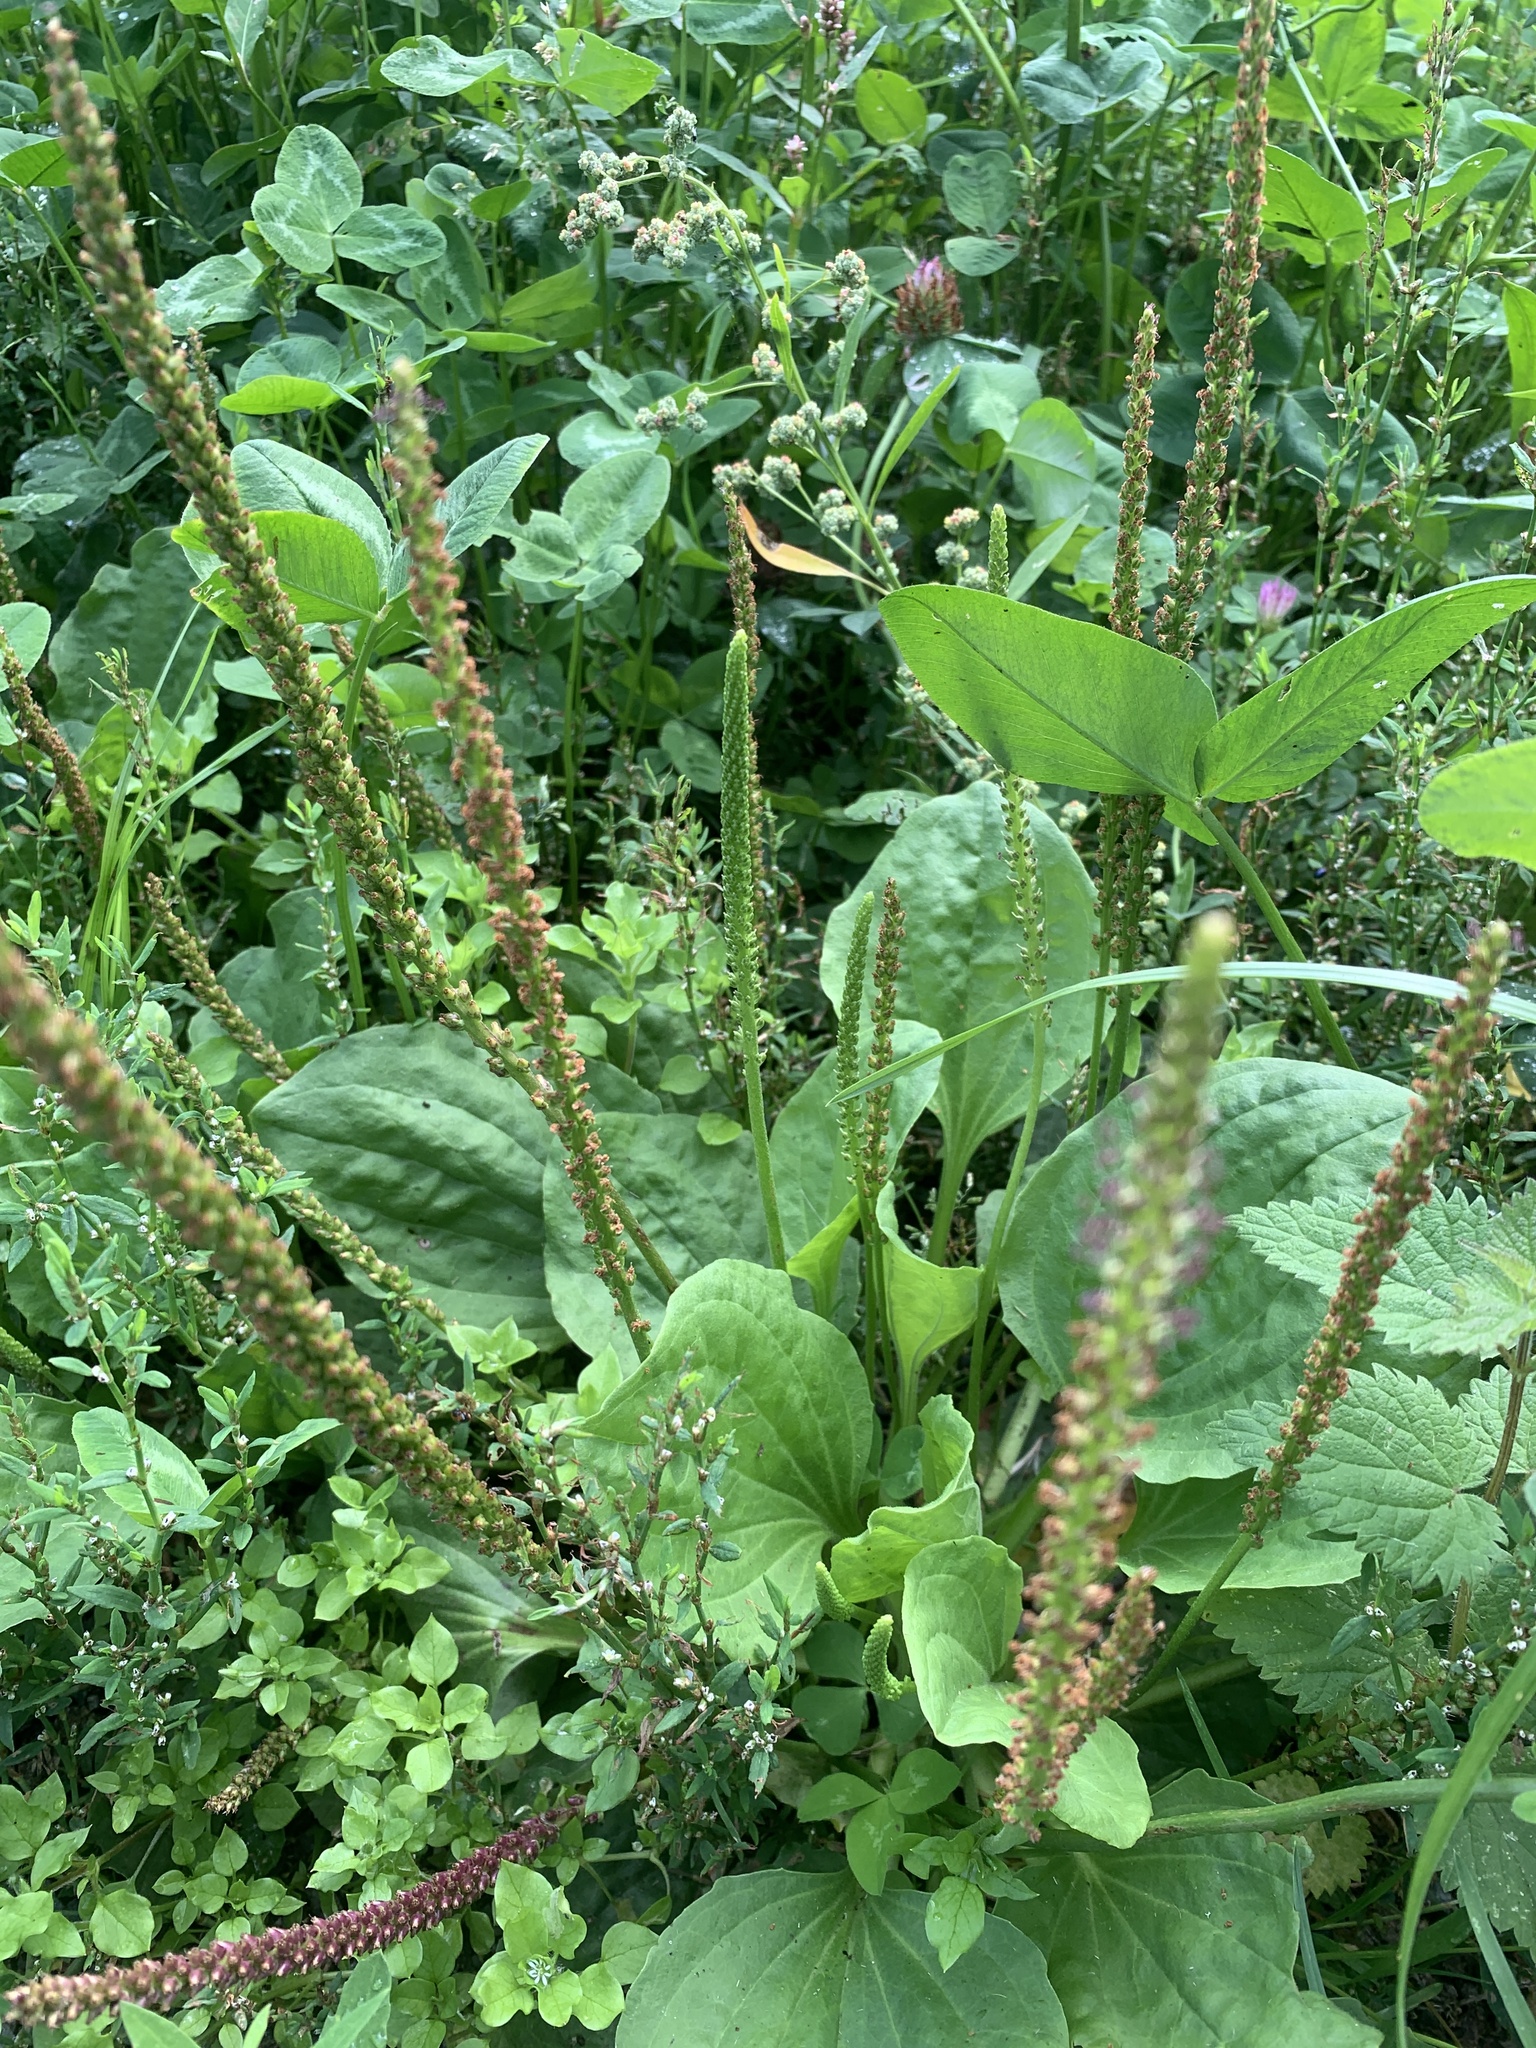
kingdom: Plantae
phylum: Tracheophyta
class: Magnoliopsida
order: Lamiales
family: Plantaginaceae
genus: Plantago
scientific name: Plantago major
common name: Common plantain
